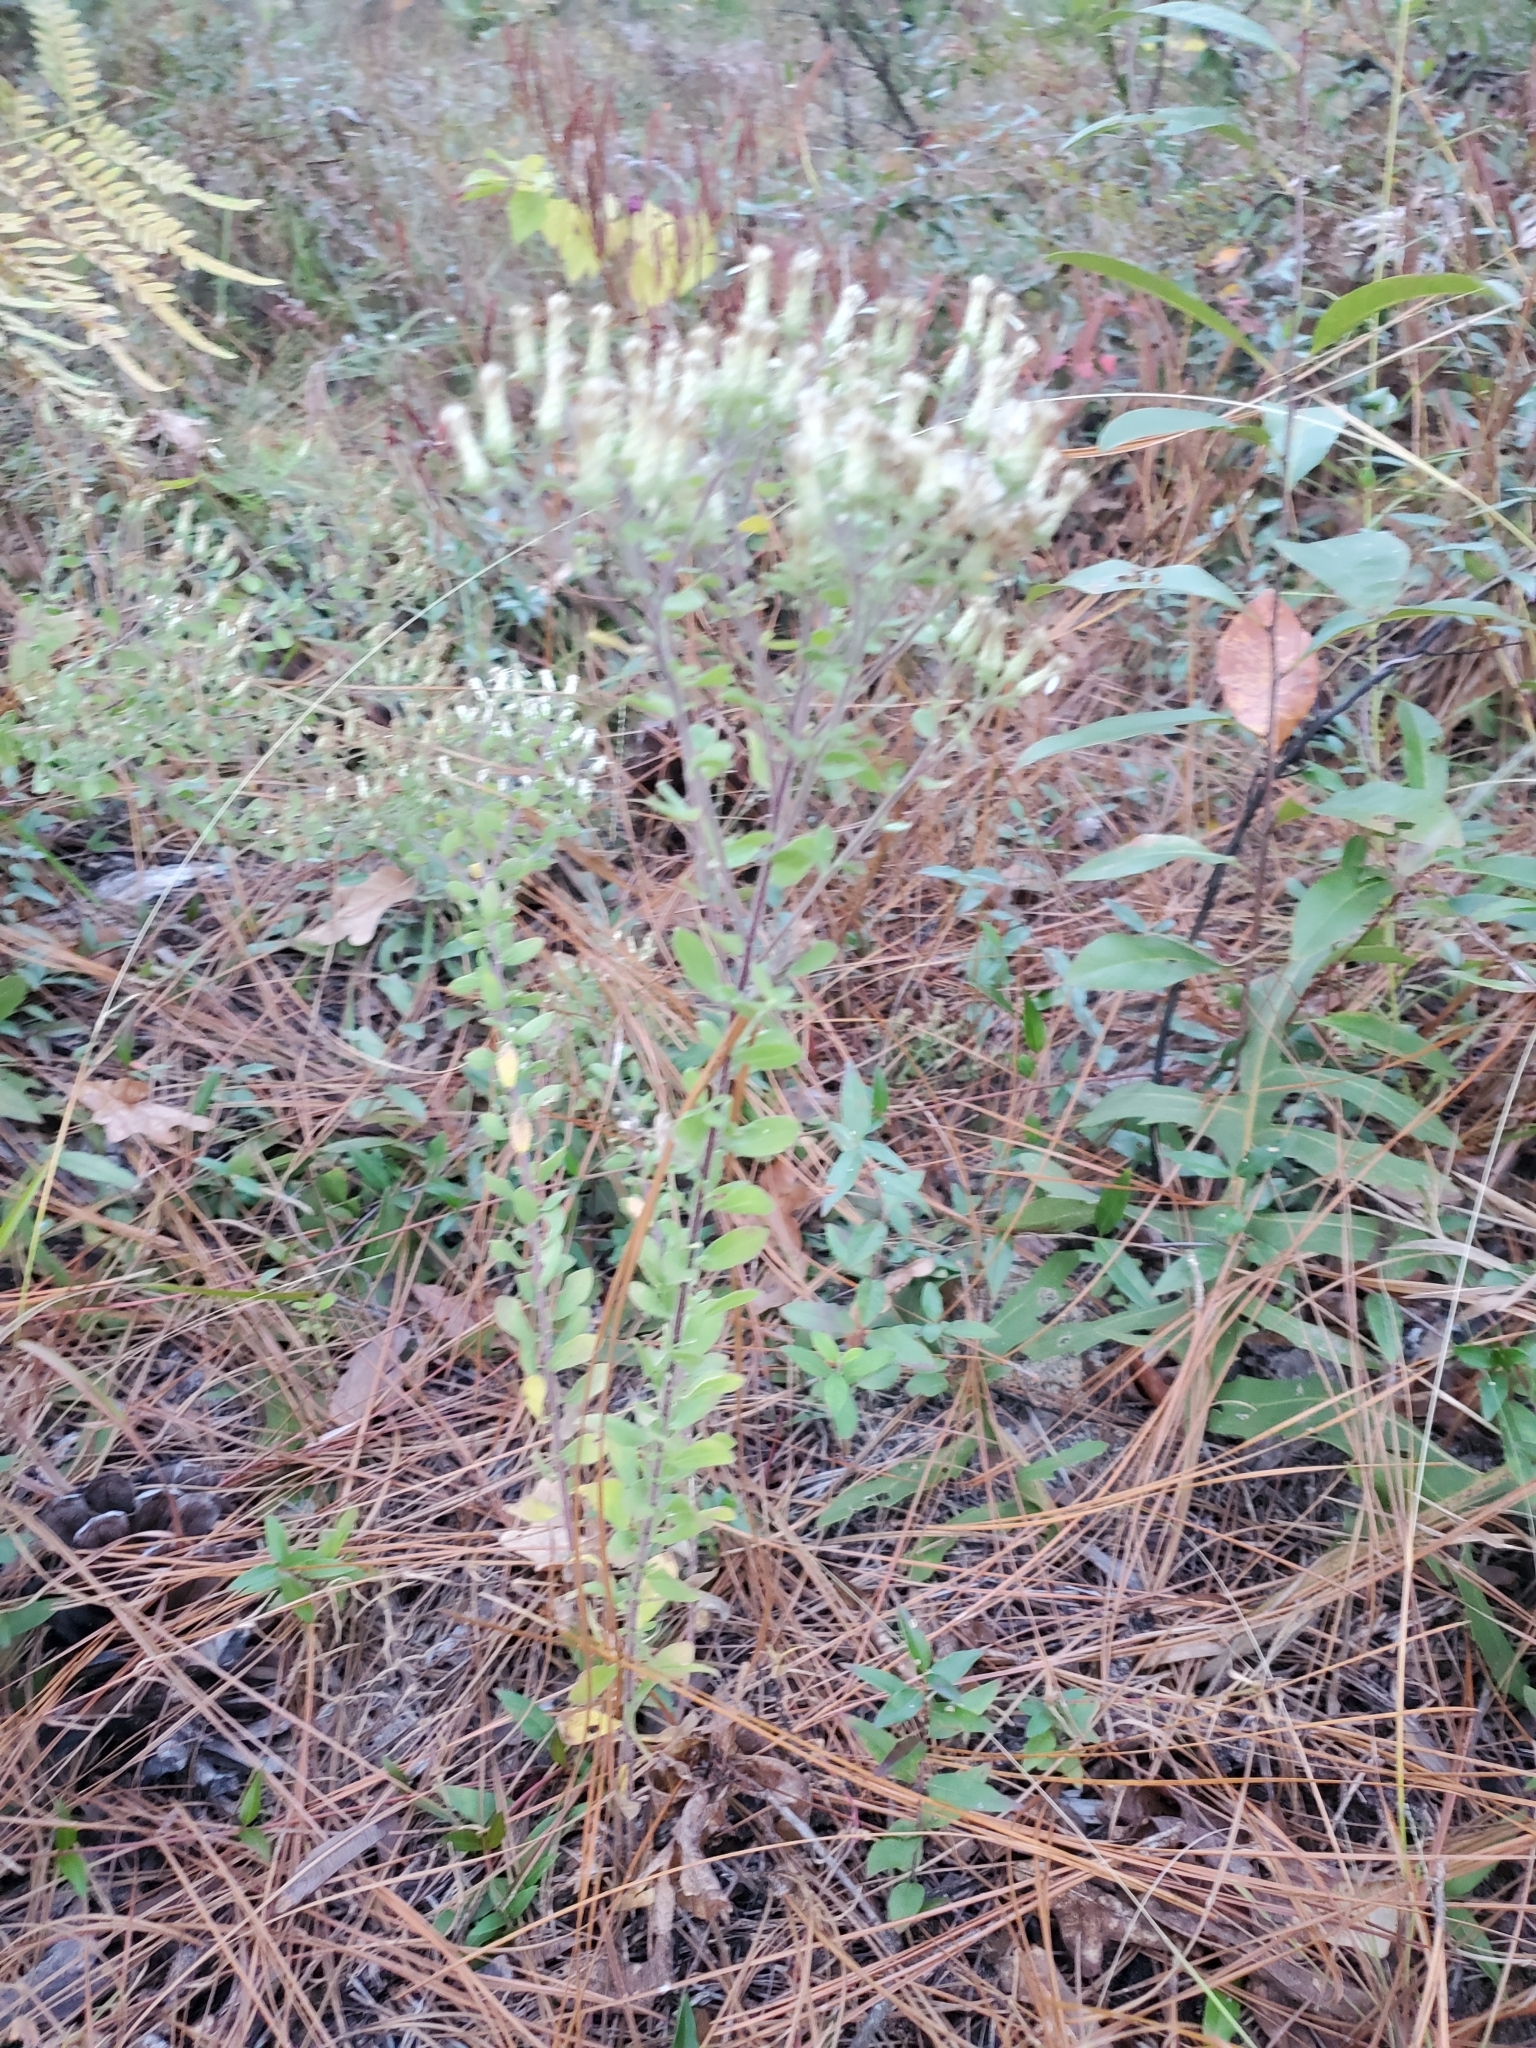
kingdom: Plantae
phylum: Tracheophyta
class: Magnoliopsida
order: Asterales
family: Asteraceae
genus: Sericocarpus
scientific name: Sericocarpus tortifolius
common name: Dixie aster
